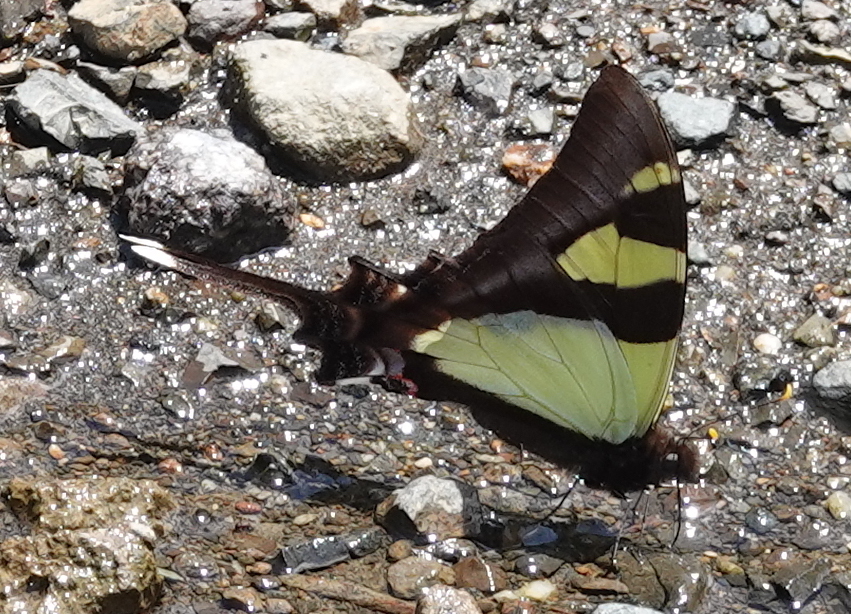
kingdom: Animalia
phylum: Arthropoda
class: Insecta
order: Lepidoptera
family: Papilionidae
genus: Eurytides
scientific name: Eurytides
